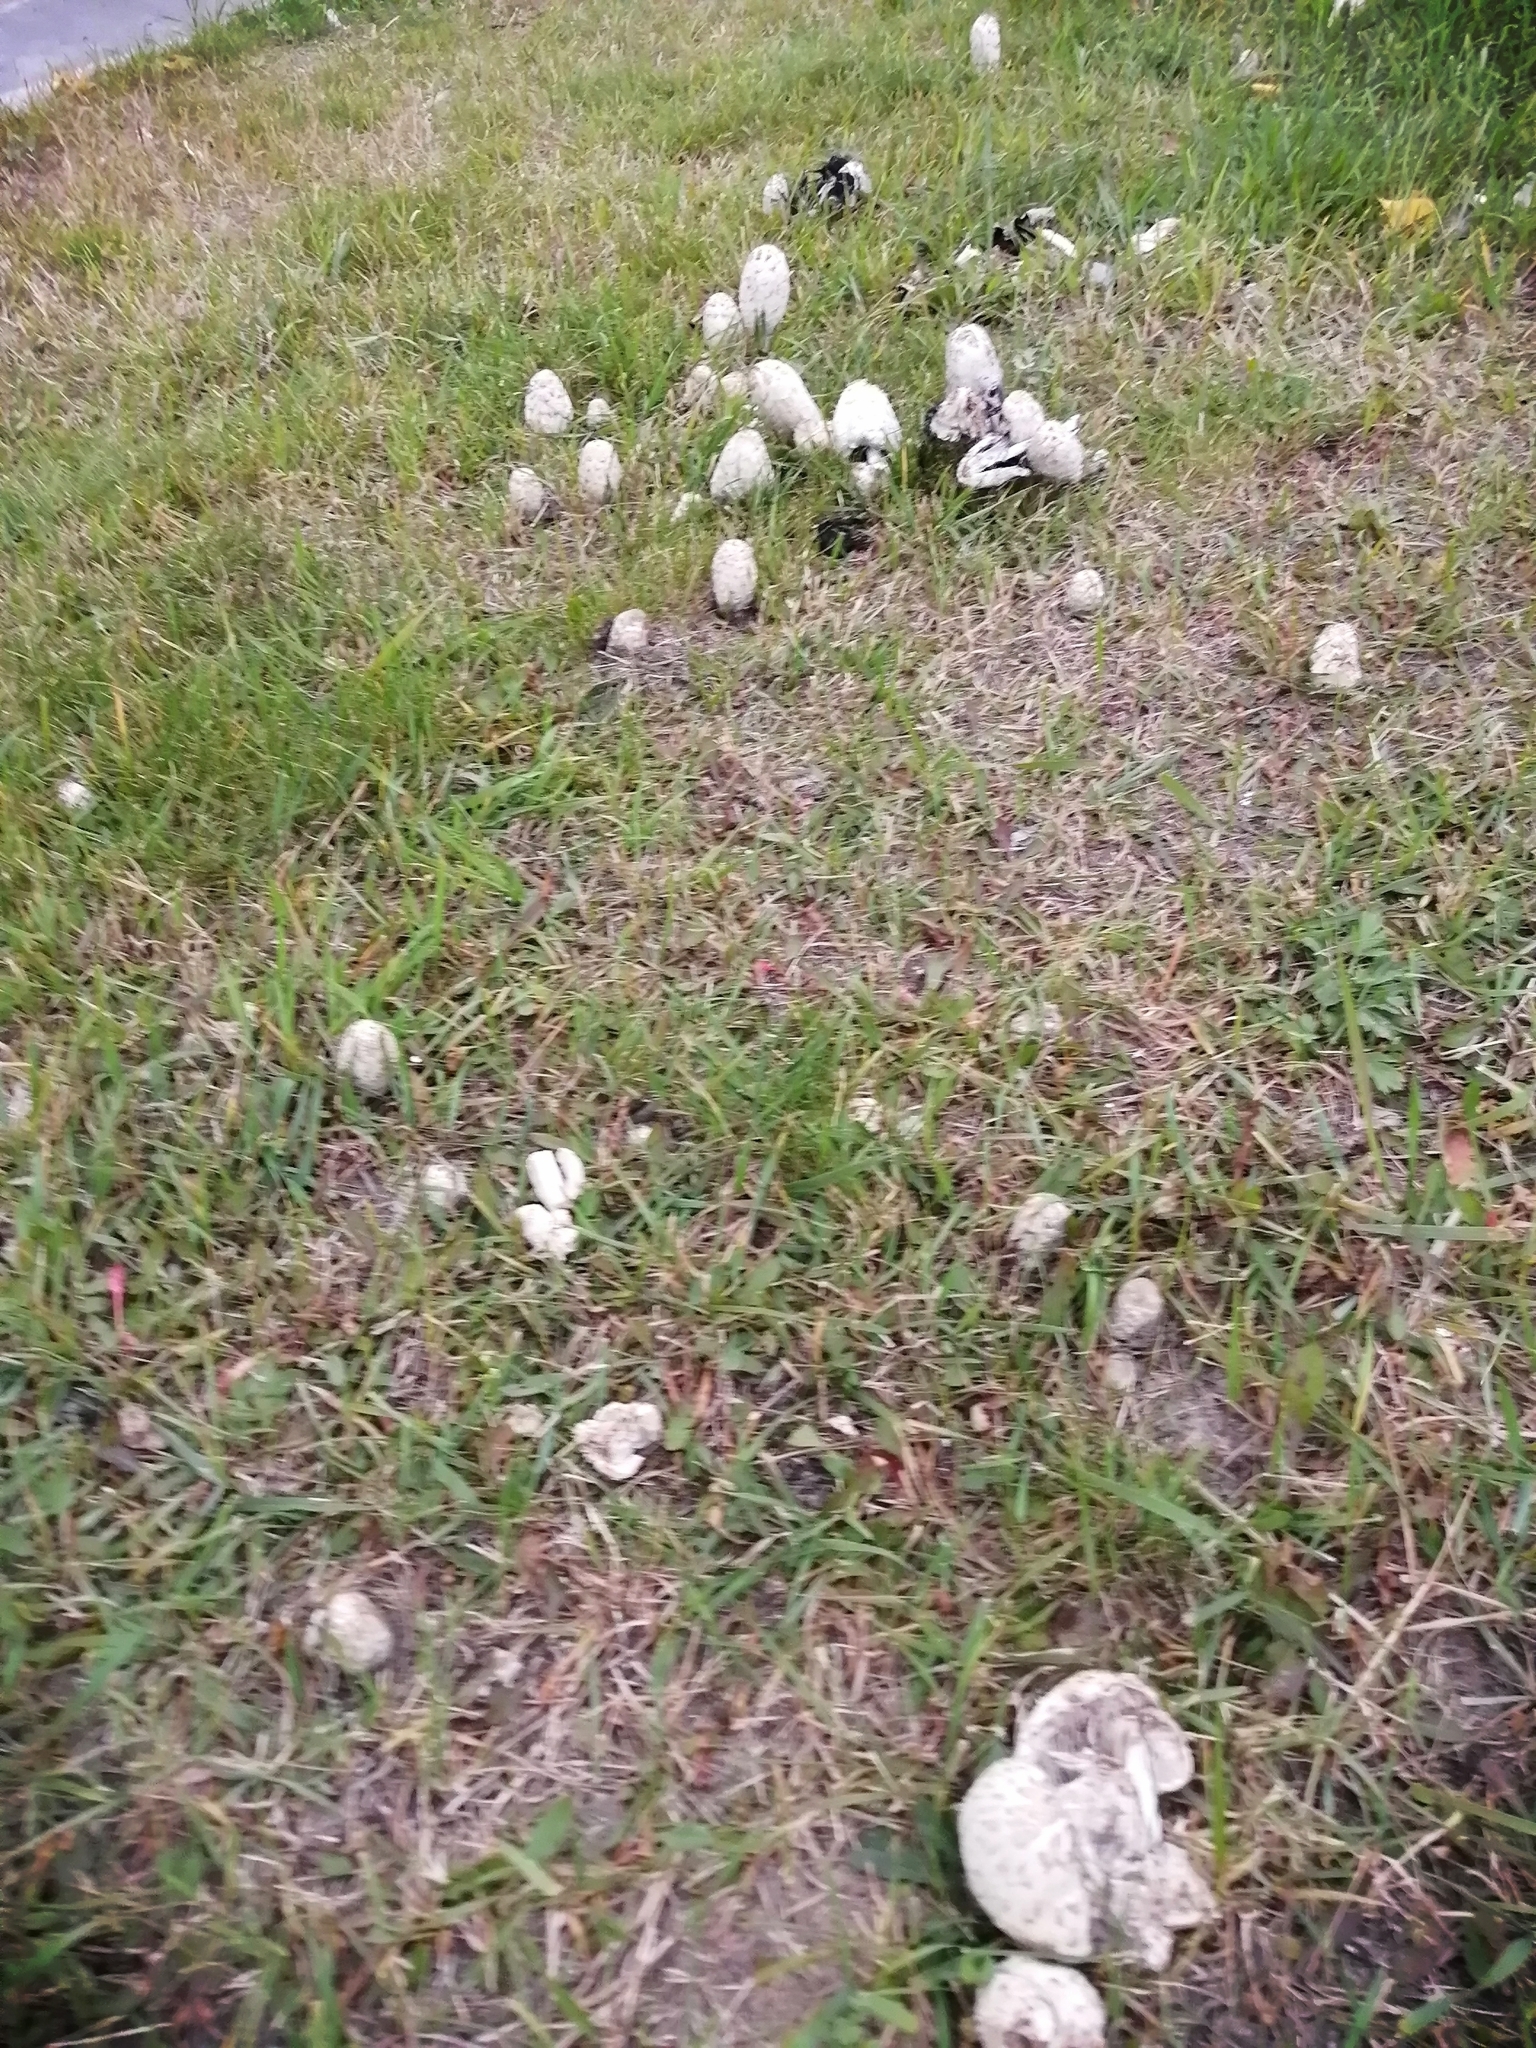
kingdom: Fungi
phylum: Basidiomycota
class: Agaricomycetes
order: Agaricales
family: Agaricaceae
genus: Coprinus
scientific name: Coprinus comatus
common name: Lawyer's wig
